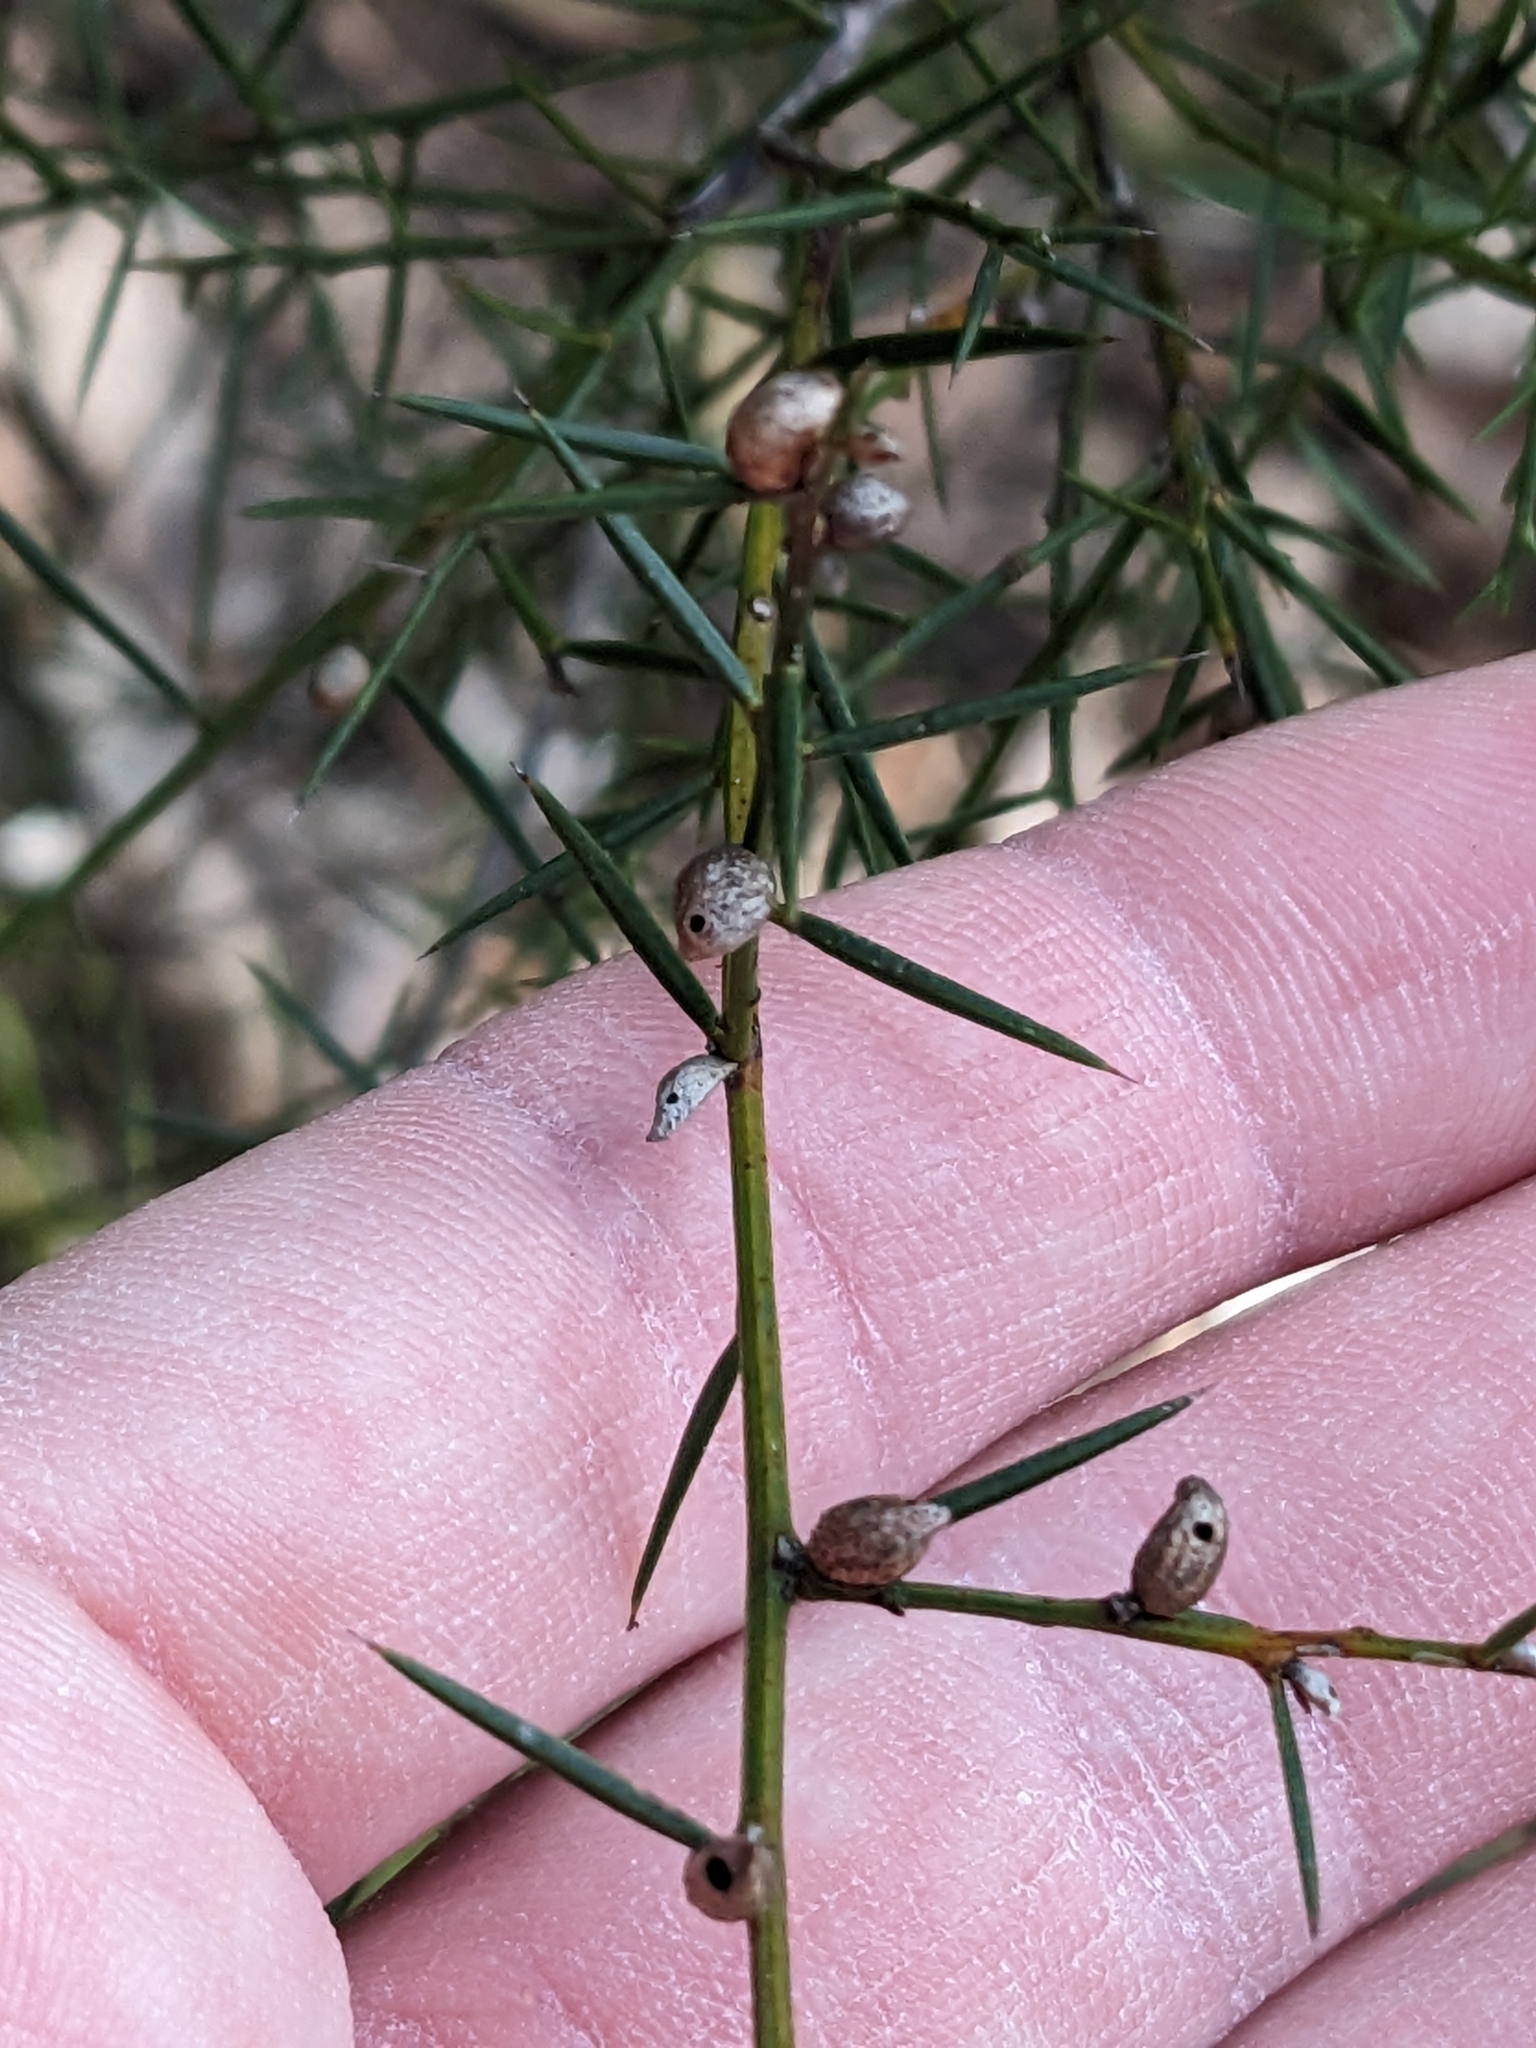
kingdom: Plantae
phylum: Tracheophyta
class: Magnoliopsida
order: Fabales
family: Fabaceae
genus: Daviesia
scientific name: Daviesia ulicifolia
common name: Gorse bitter-pea
